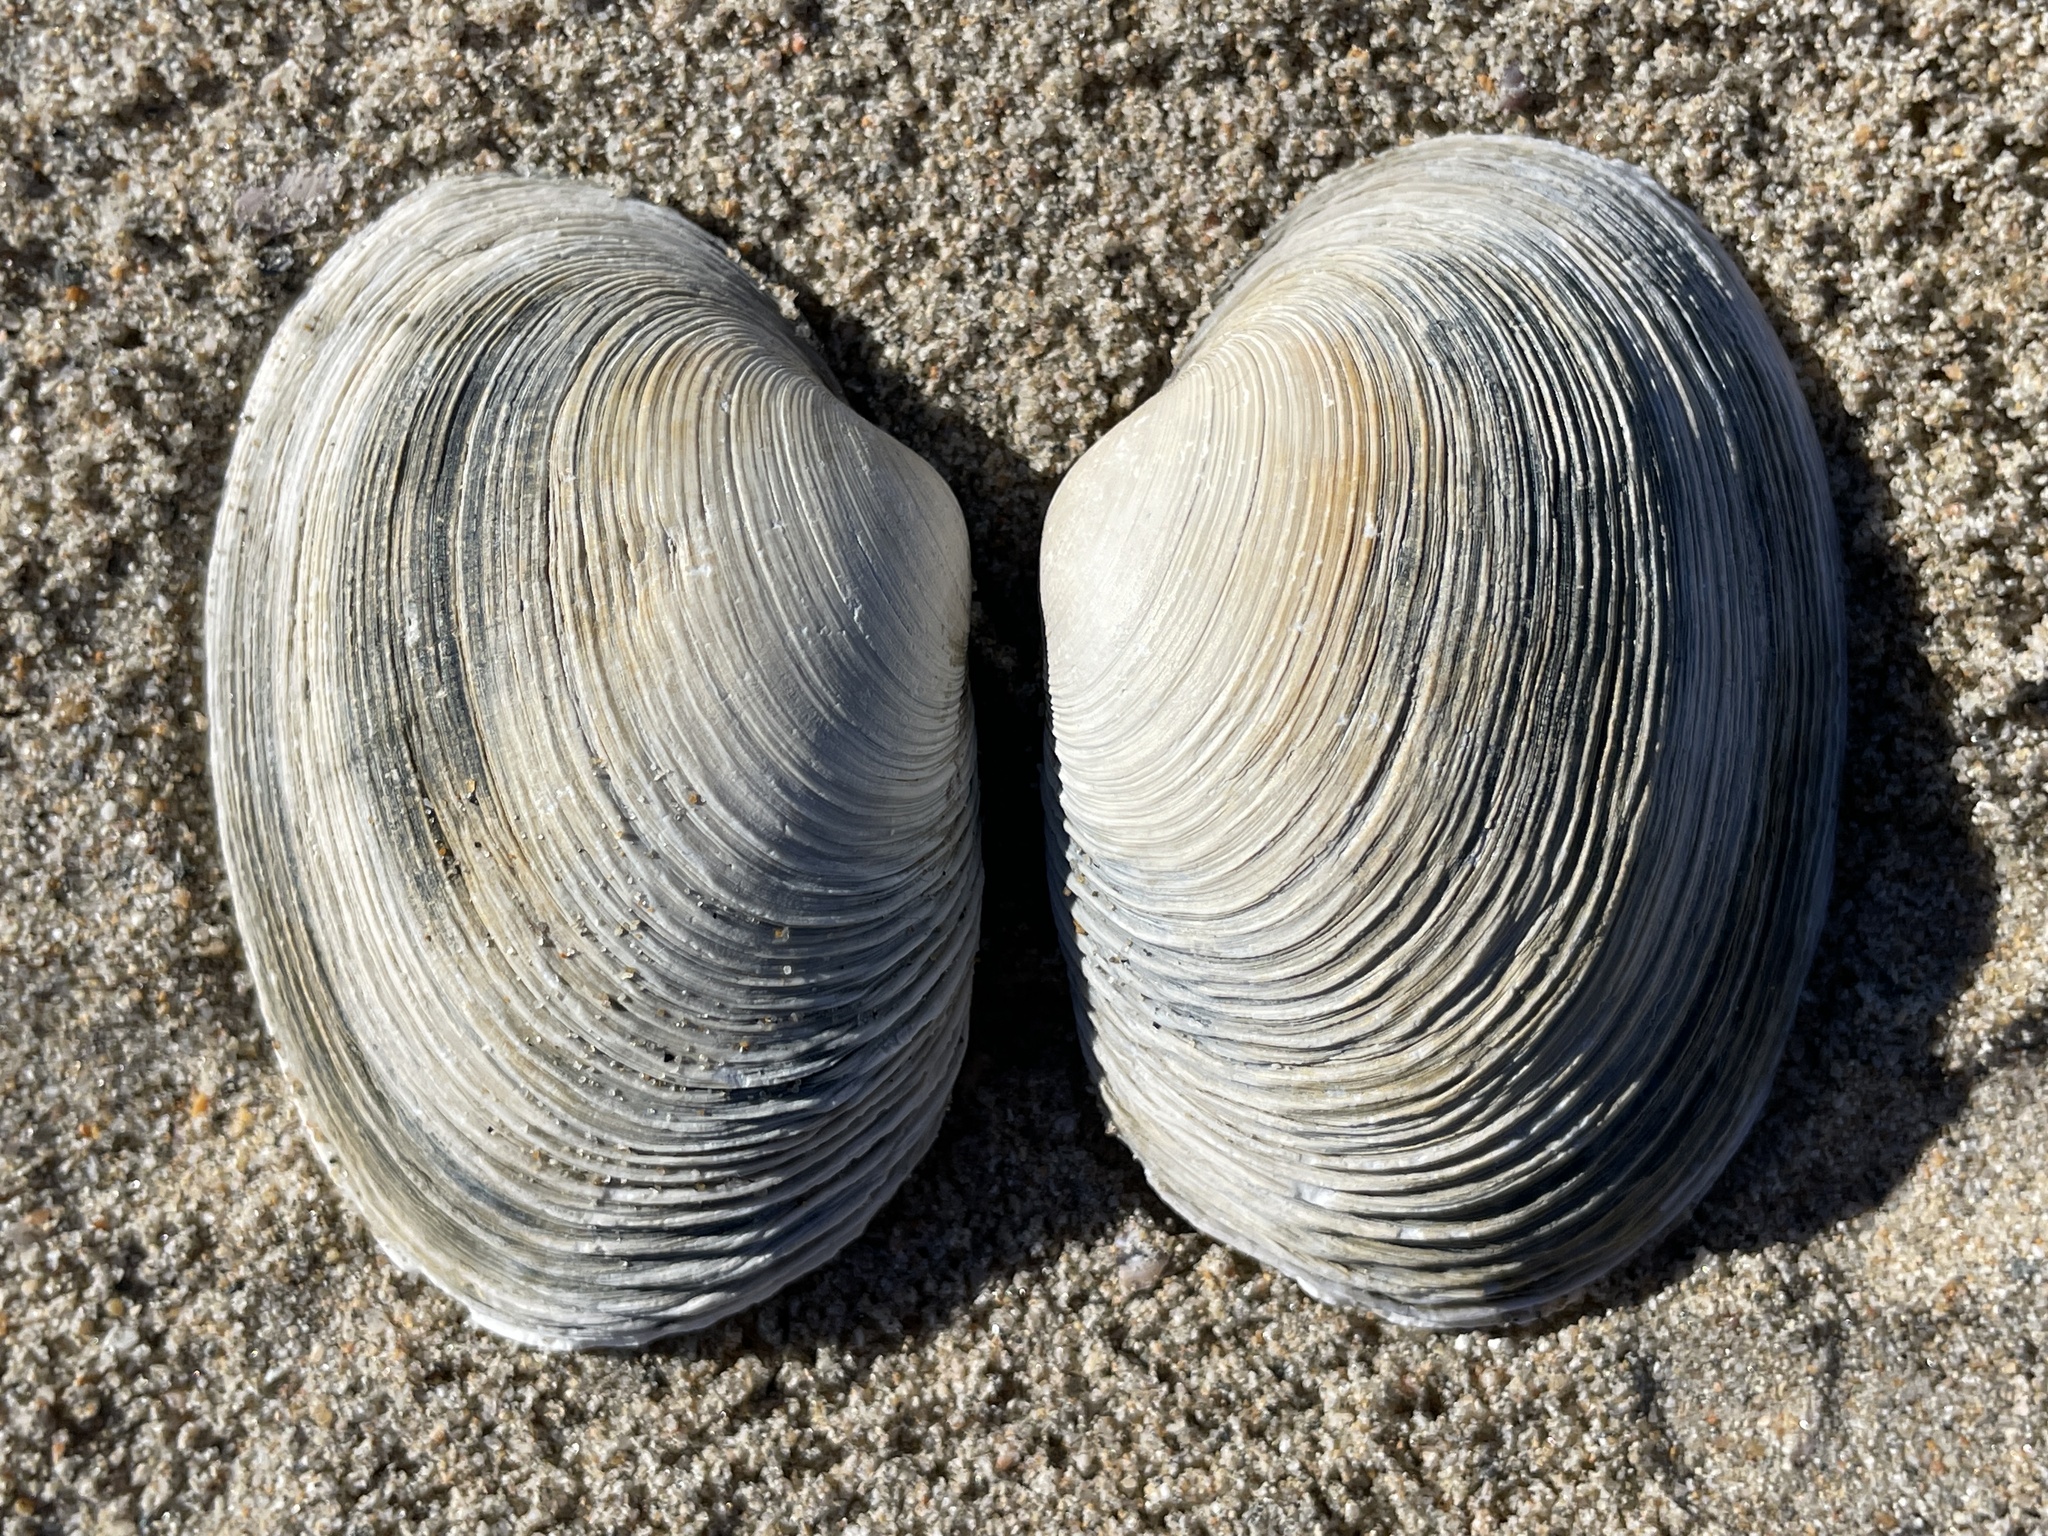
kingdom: Animalia
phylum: Mollusca
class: Bivalvia
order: Venerida
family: Veneridae
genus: Saxidomus
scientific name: Saxidomus nuttalli
